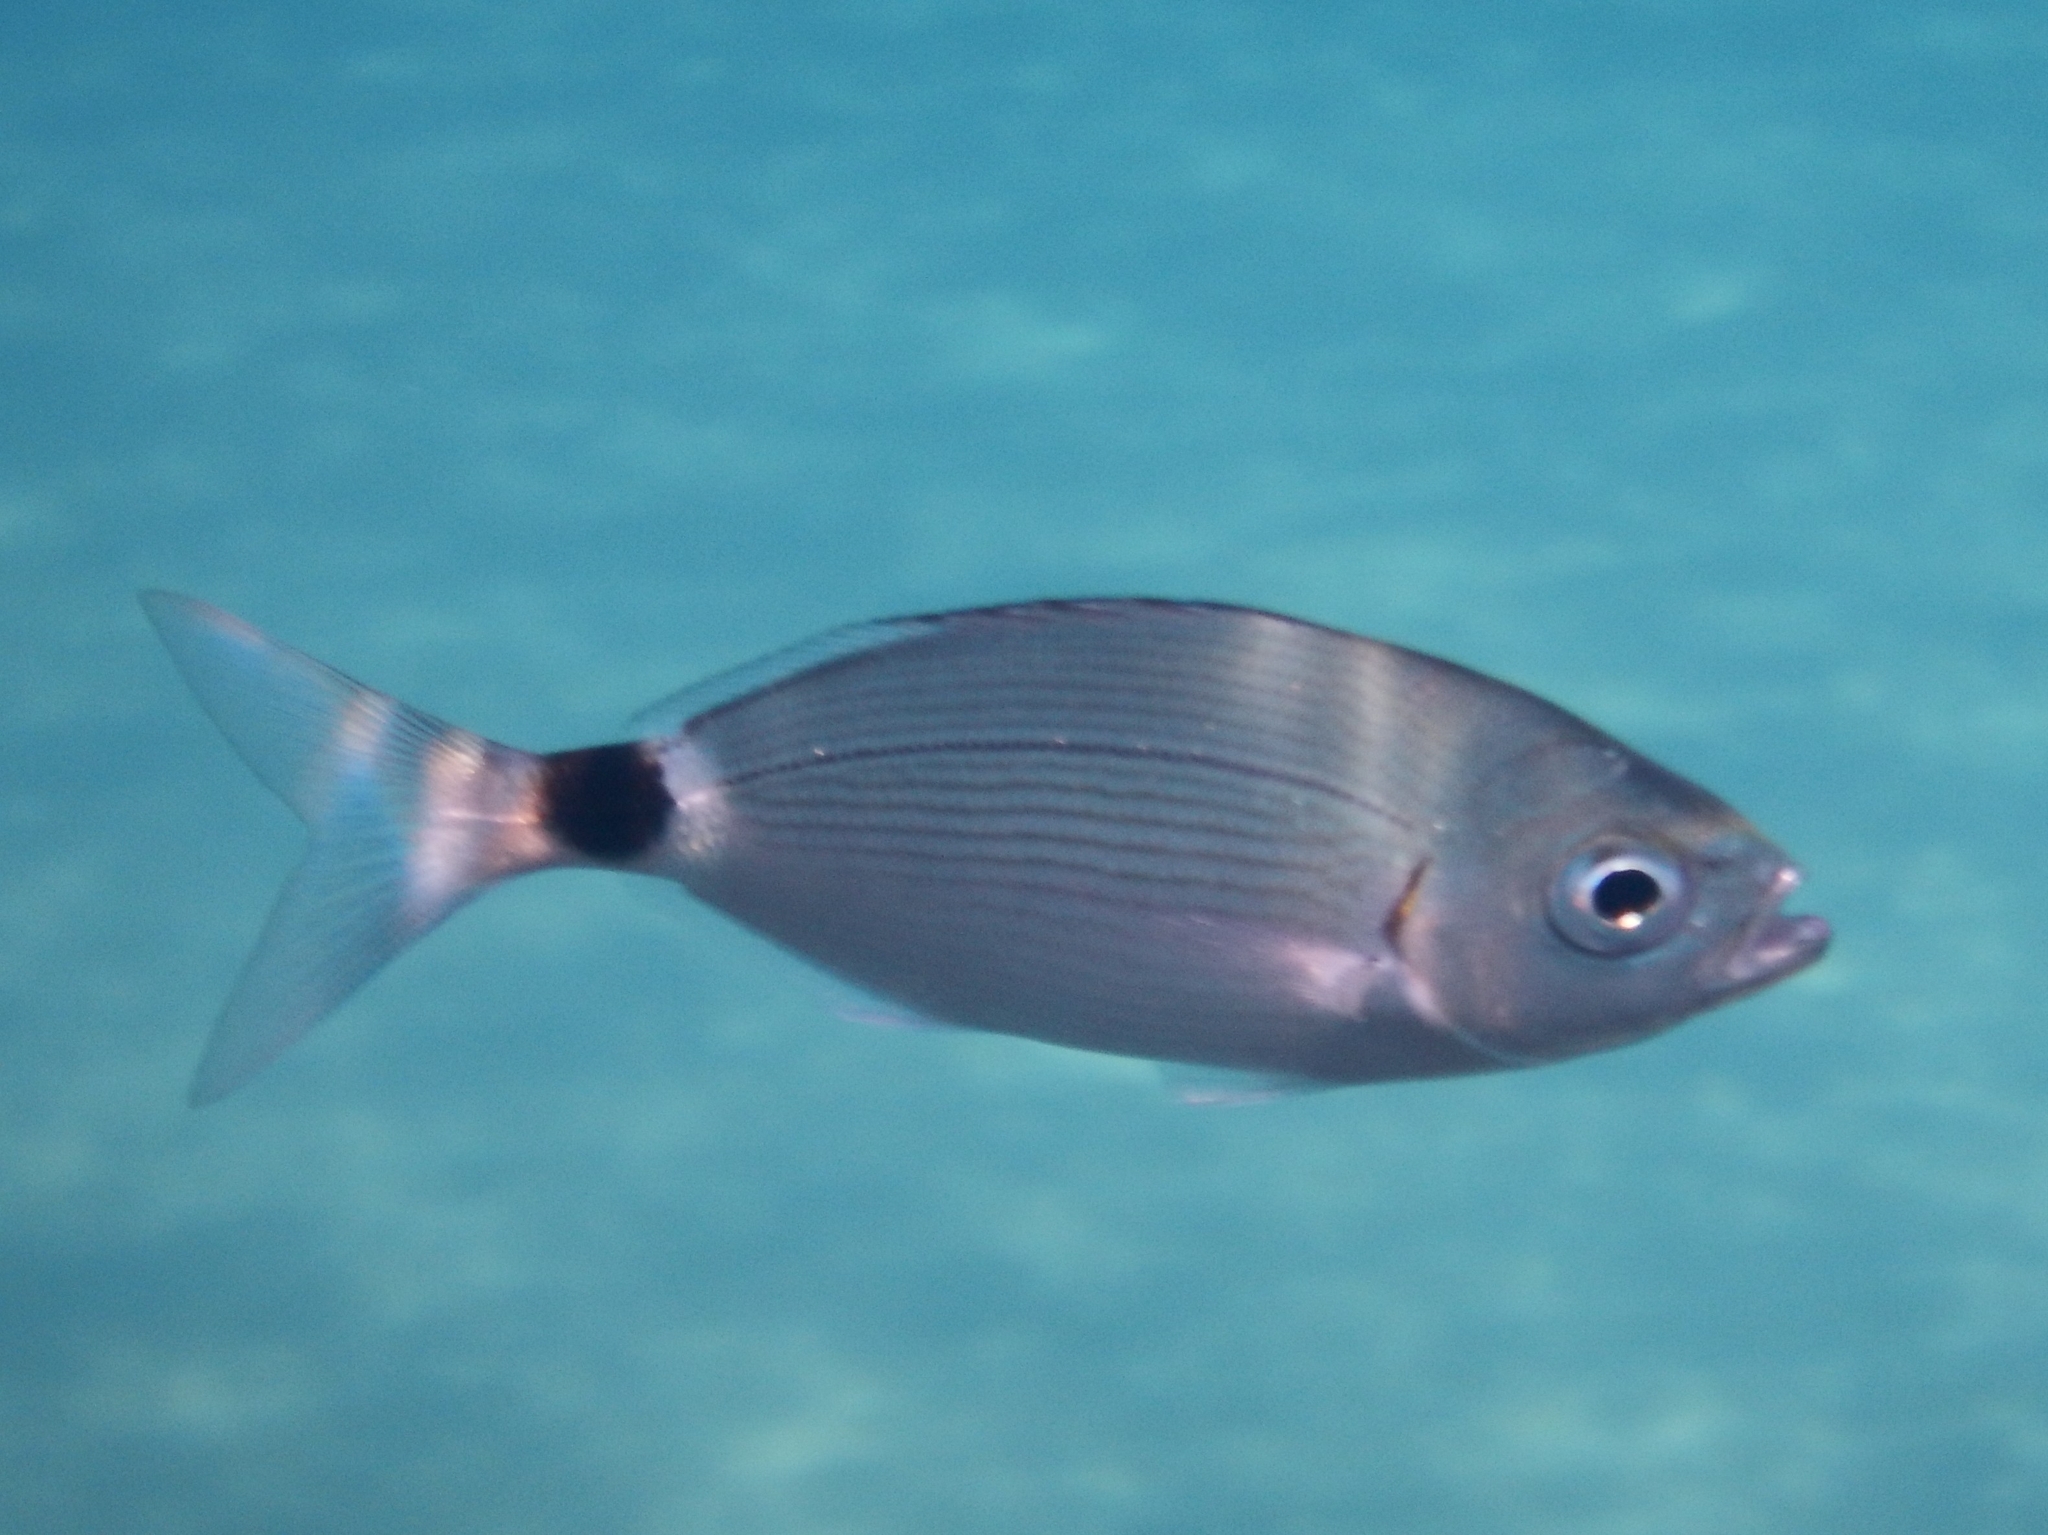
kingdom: Animalia
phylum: Chordata
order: Perciformes
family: Sparidae
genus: Oblada
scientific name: Oblada melanura
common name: Saddled seabream
